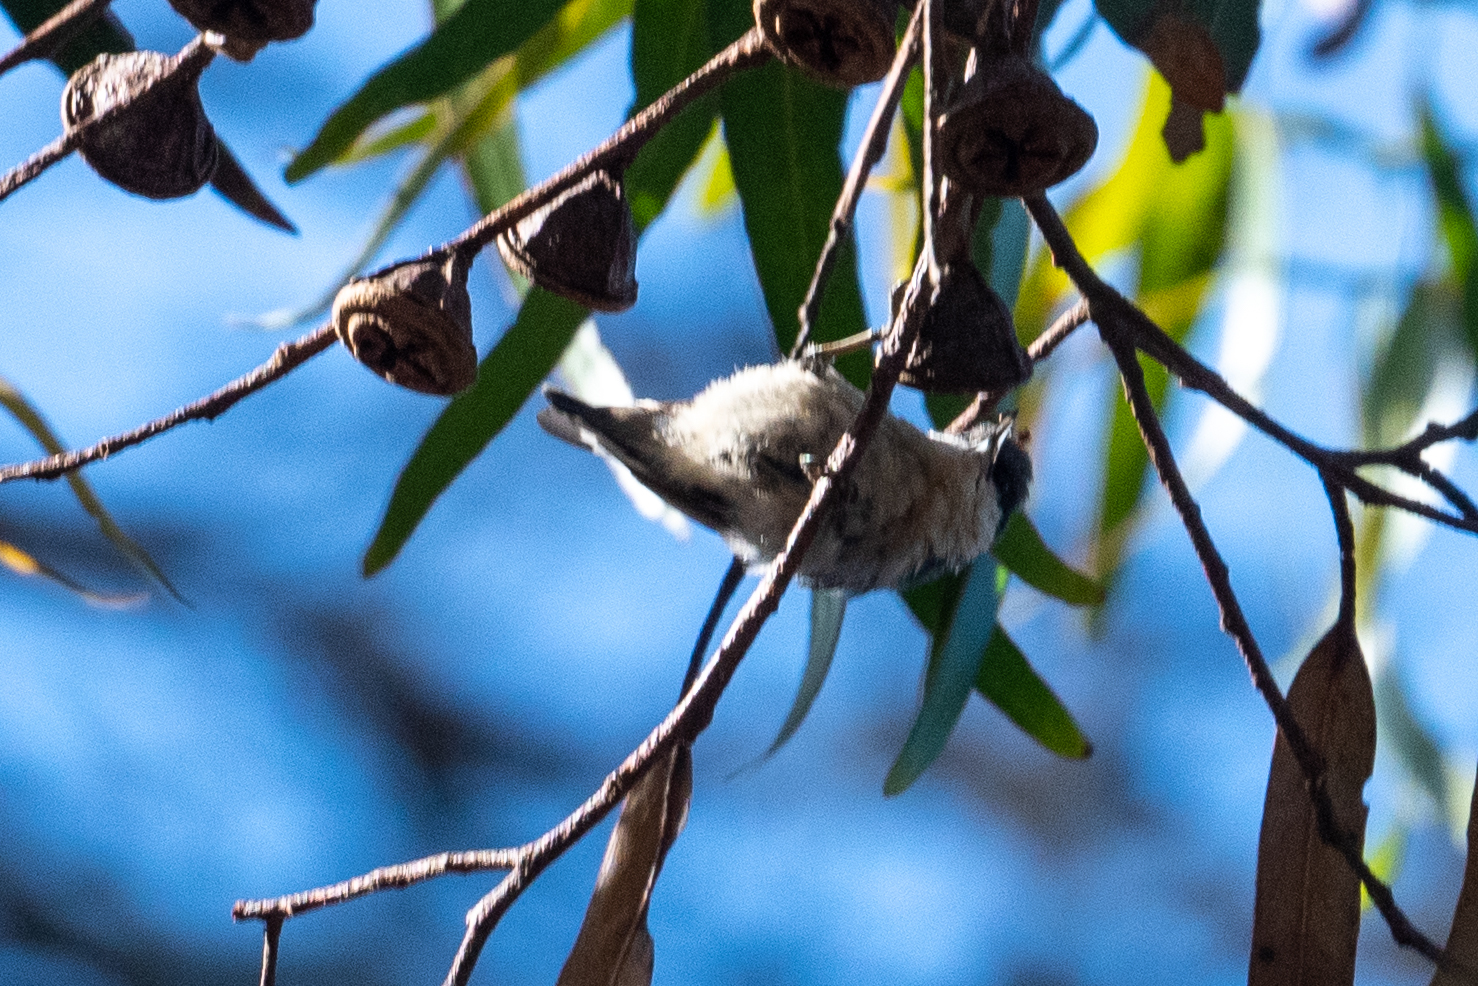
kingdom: Animalia
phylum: Chordata
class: Aves
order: Passeriformes
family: Sittidae
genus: Sitta
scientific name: Sitta pygmaea
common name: Pygmy nuthatch
